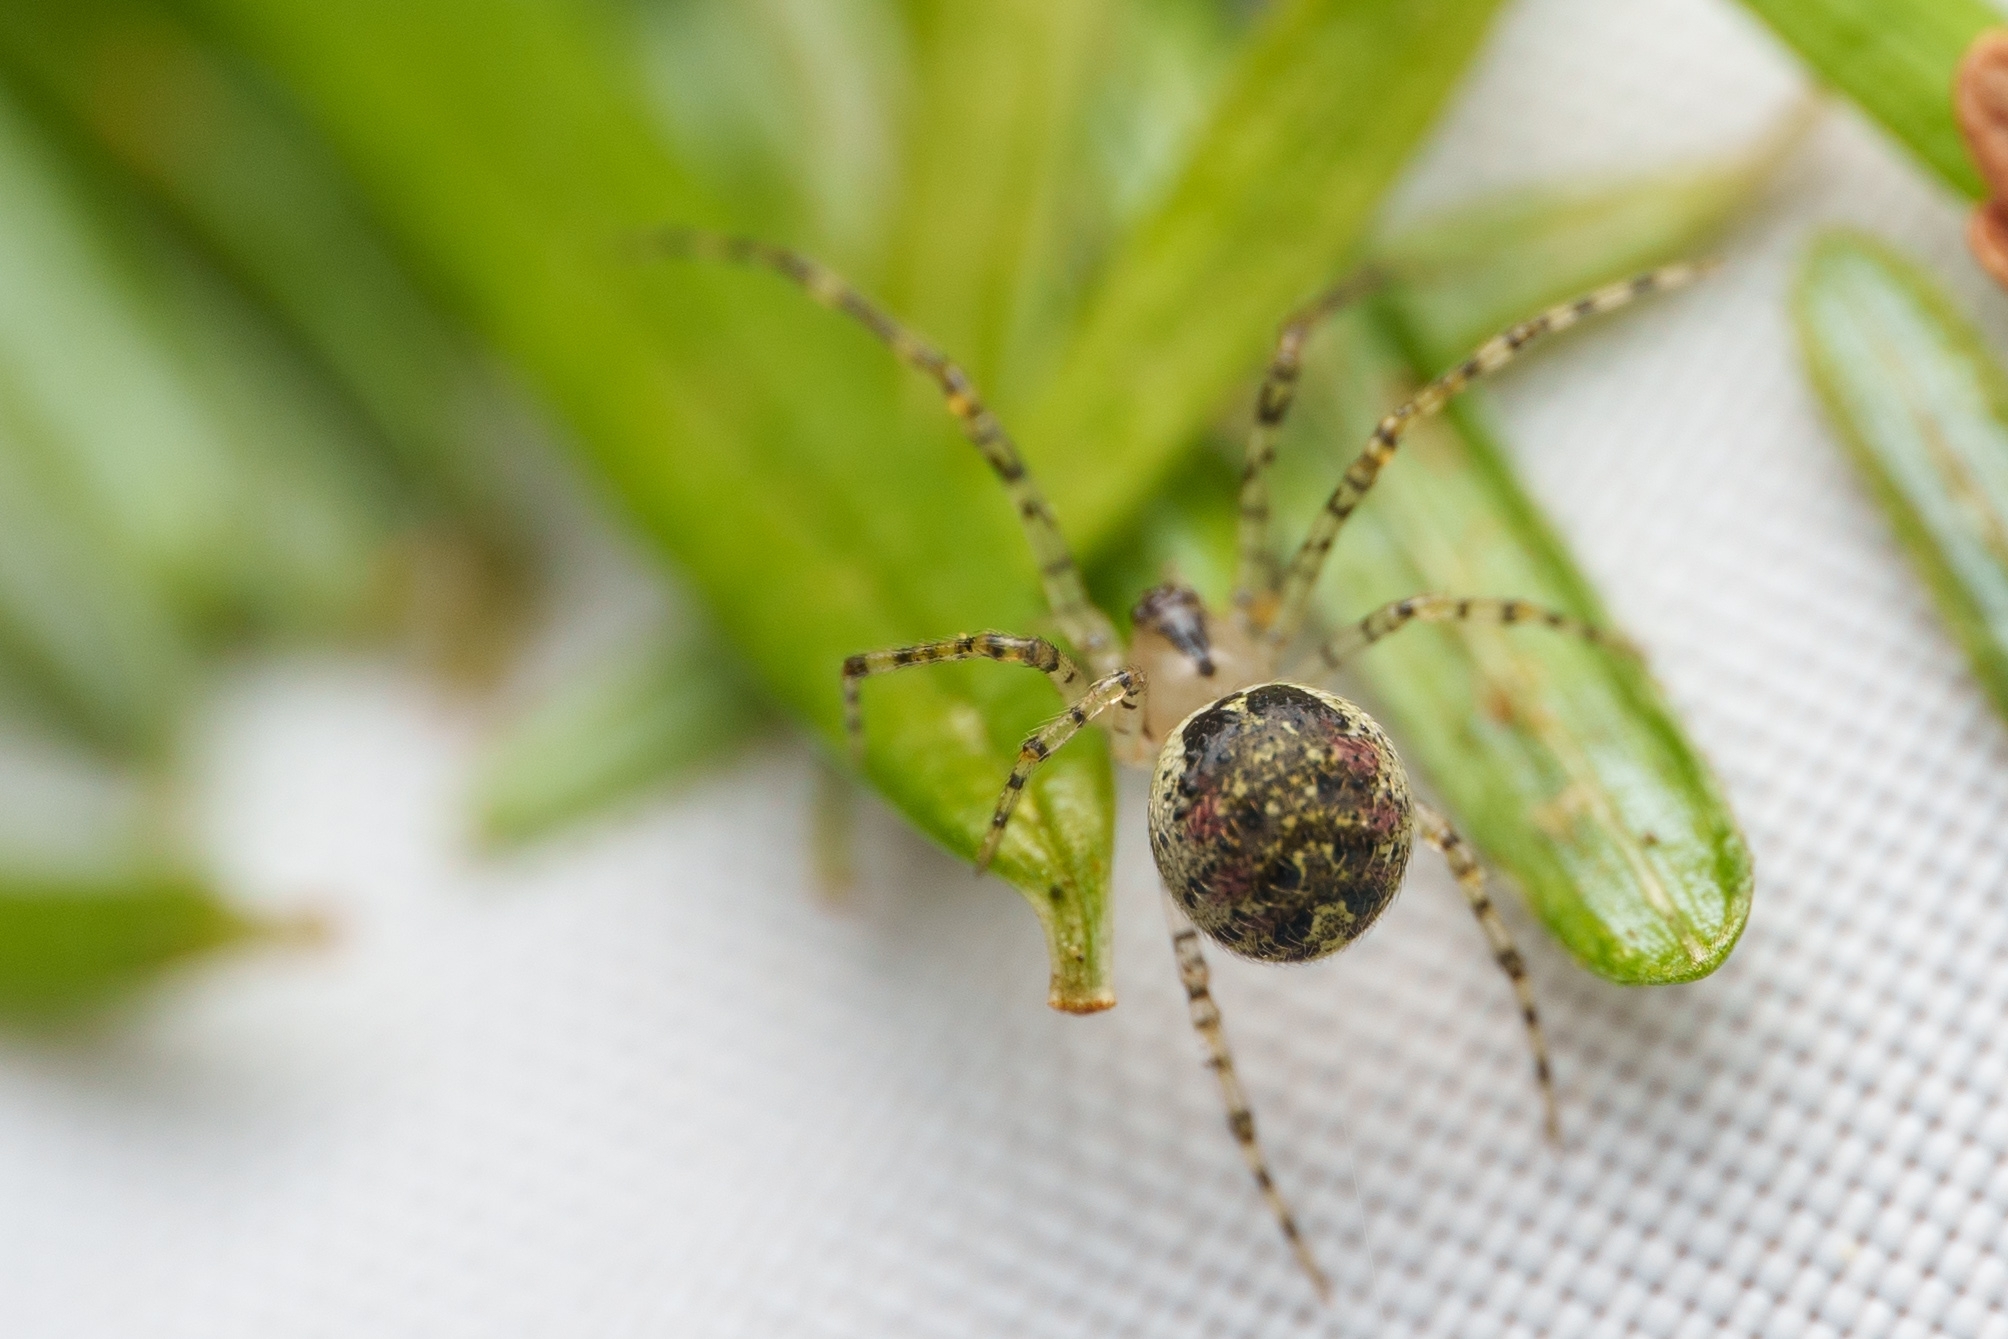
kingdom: Animalia
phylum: Arthropoda
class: Arachnida
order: Araneae
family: Theridiidae
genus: Platnickina
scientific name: Platnickina tincta
